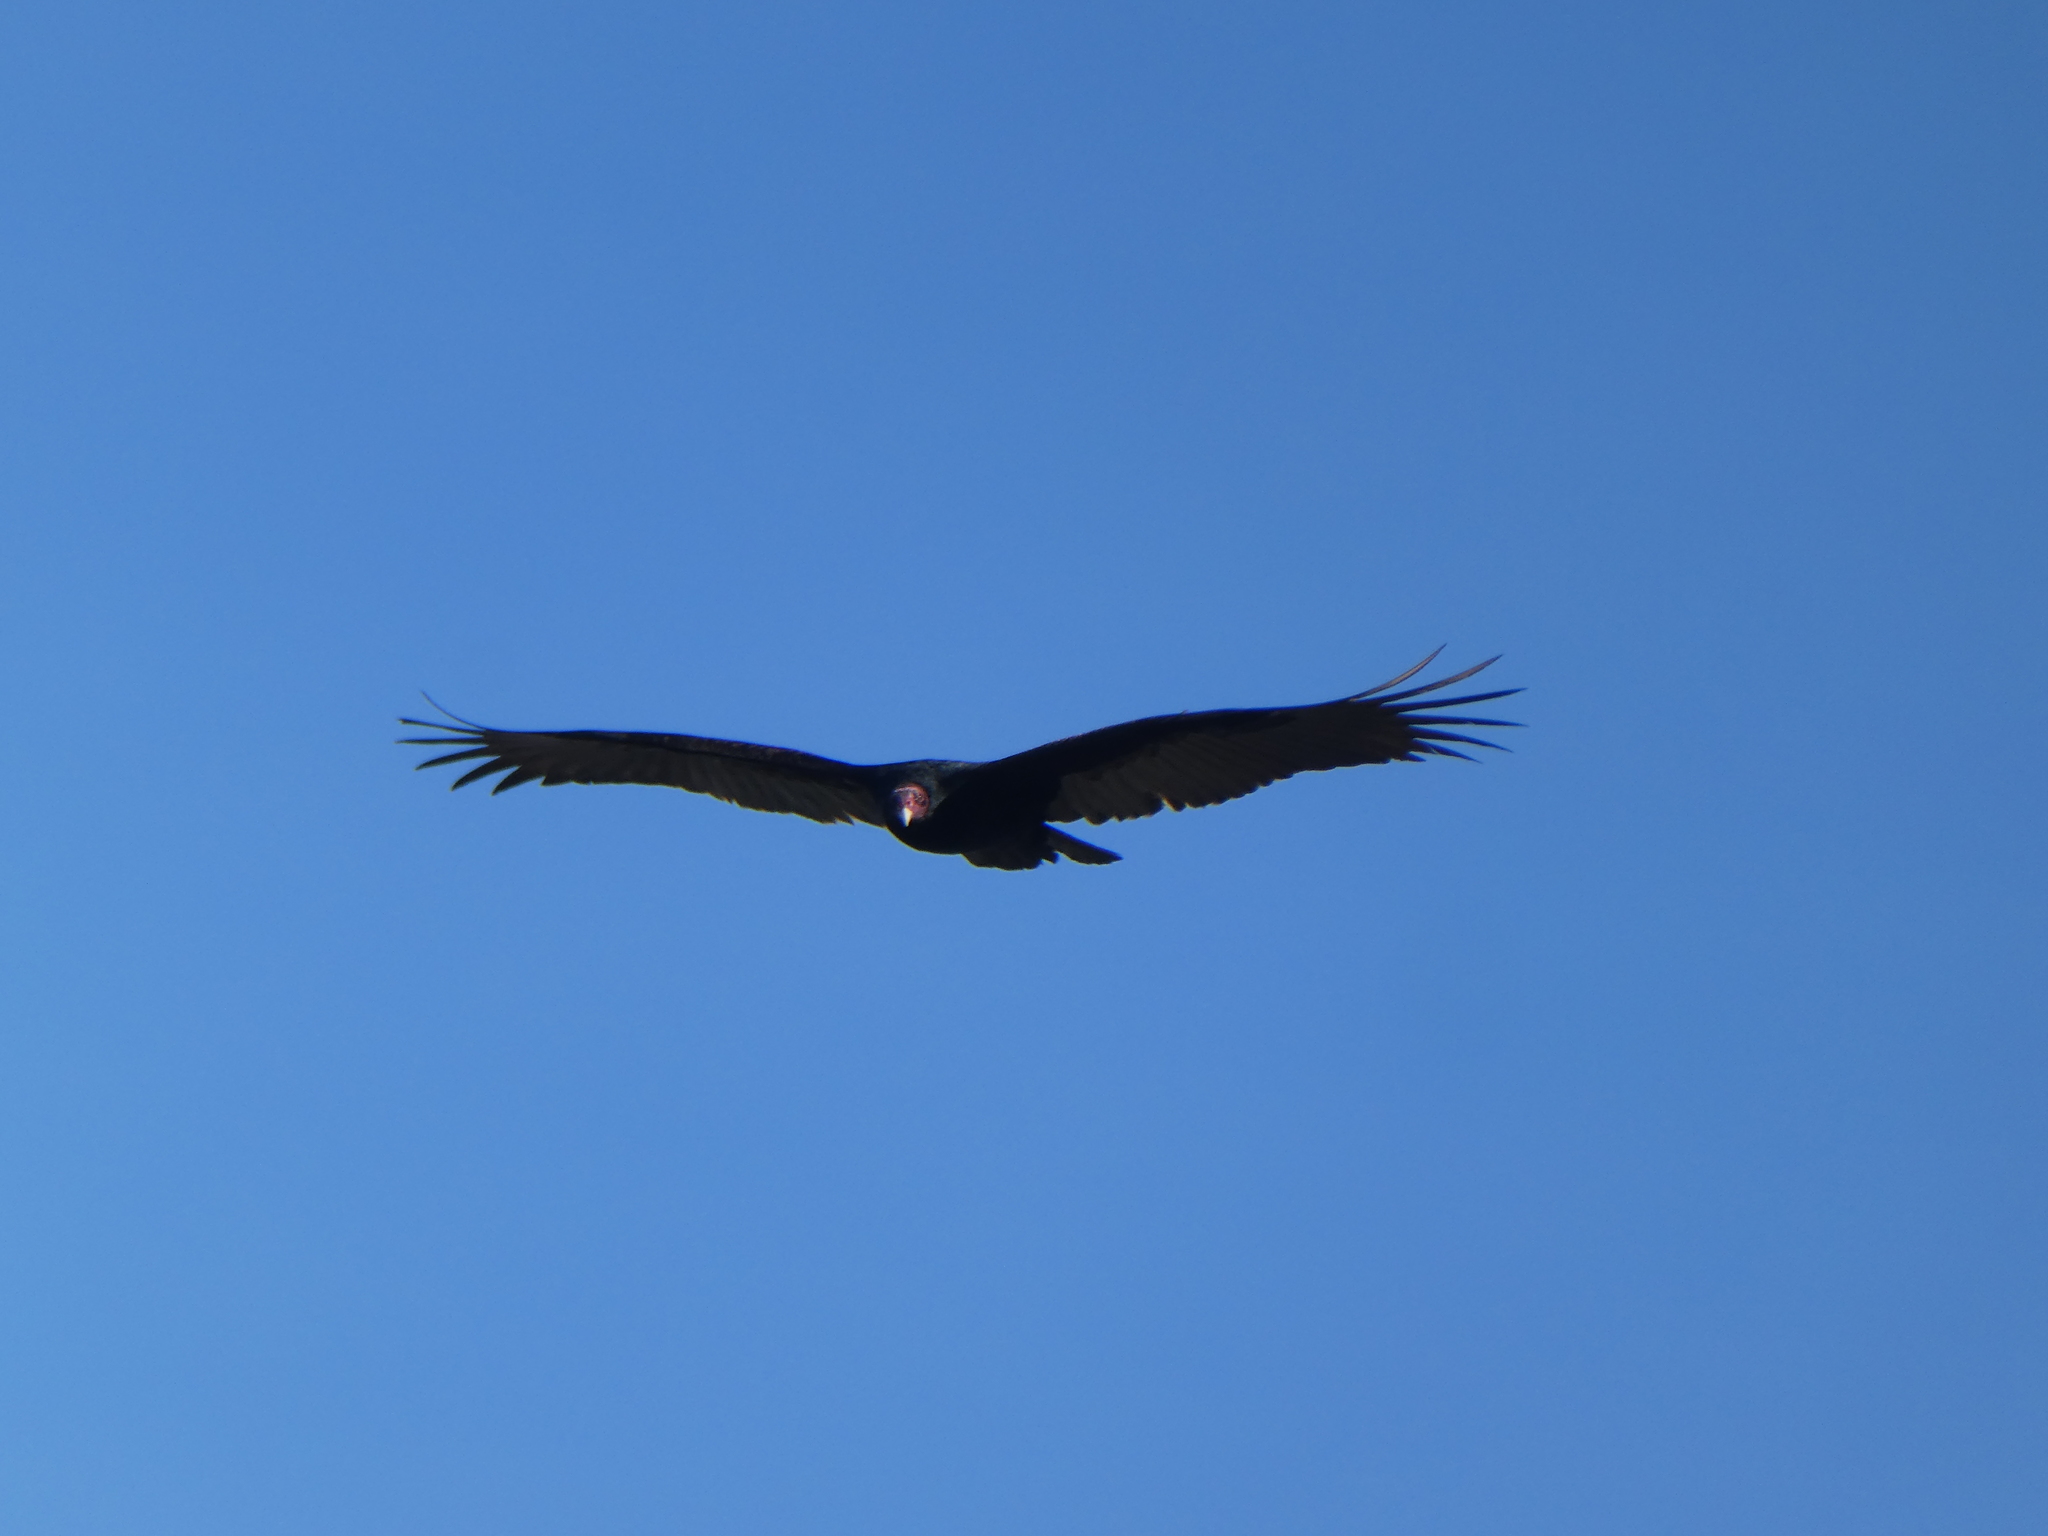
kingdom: Animalia
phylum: Chordata
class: Aves
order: Accipitriformes
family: Cathartidae
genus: Cathartes
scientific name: Cathartes aura
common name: Turkey vulture
